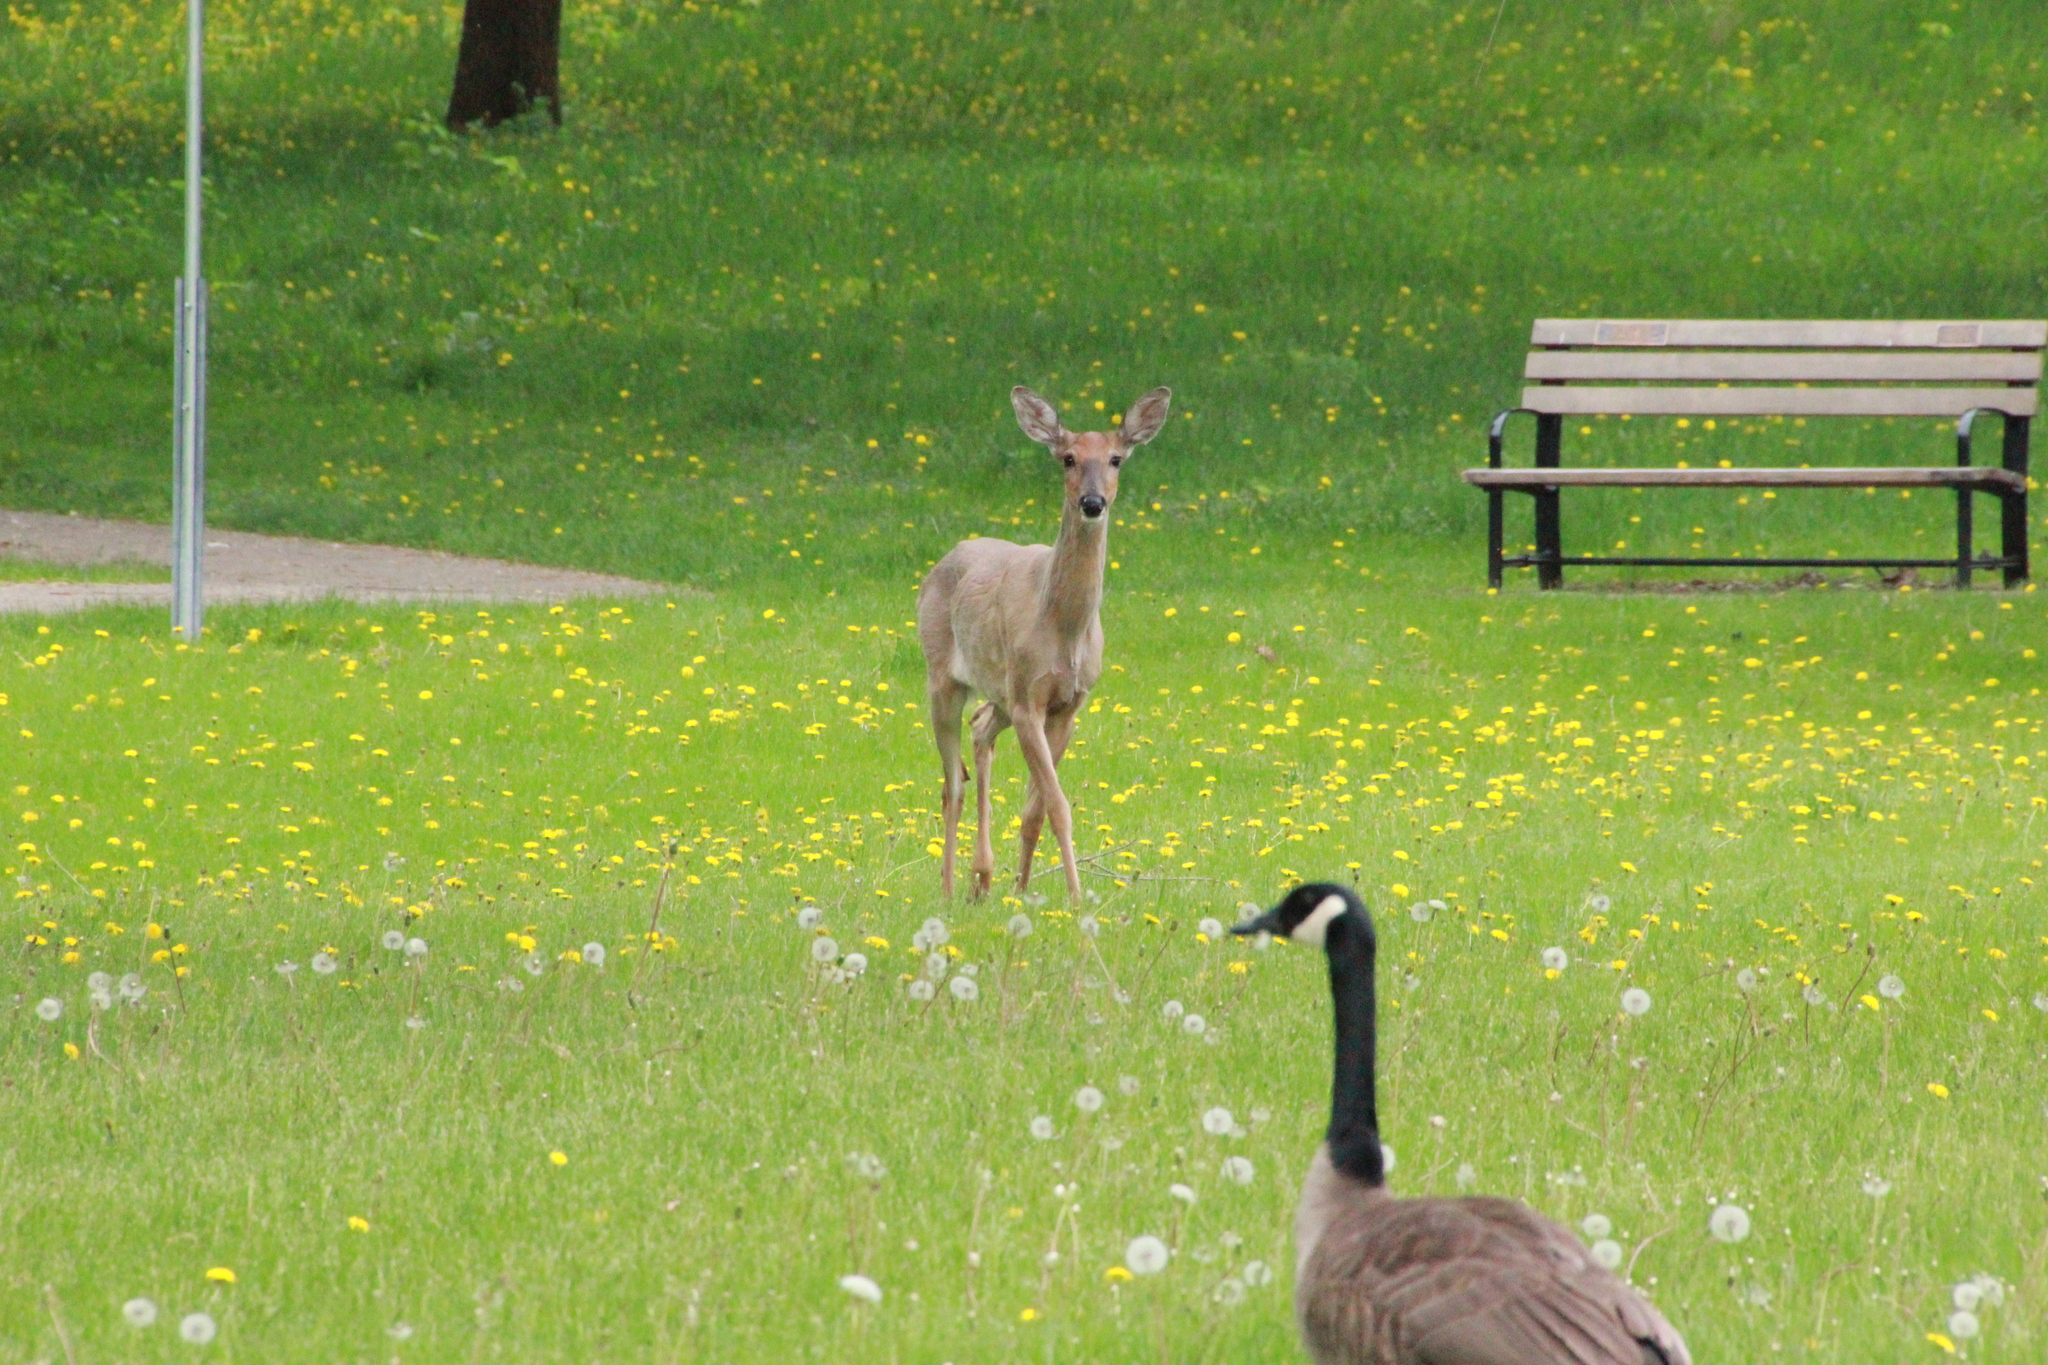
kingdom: Animalia
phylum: Chordata
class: Mammalia
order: Artiodactyla
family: Cervidae
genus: Odocoileus
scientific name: Odocoileus virginianus
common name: White-tailed deer
